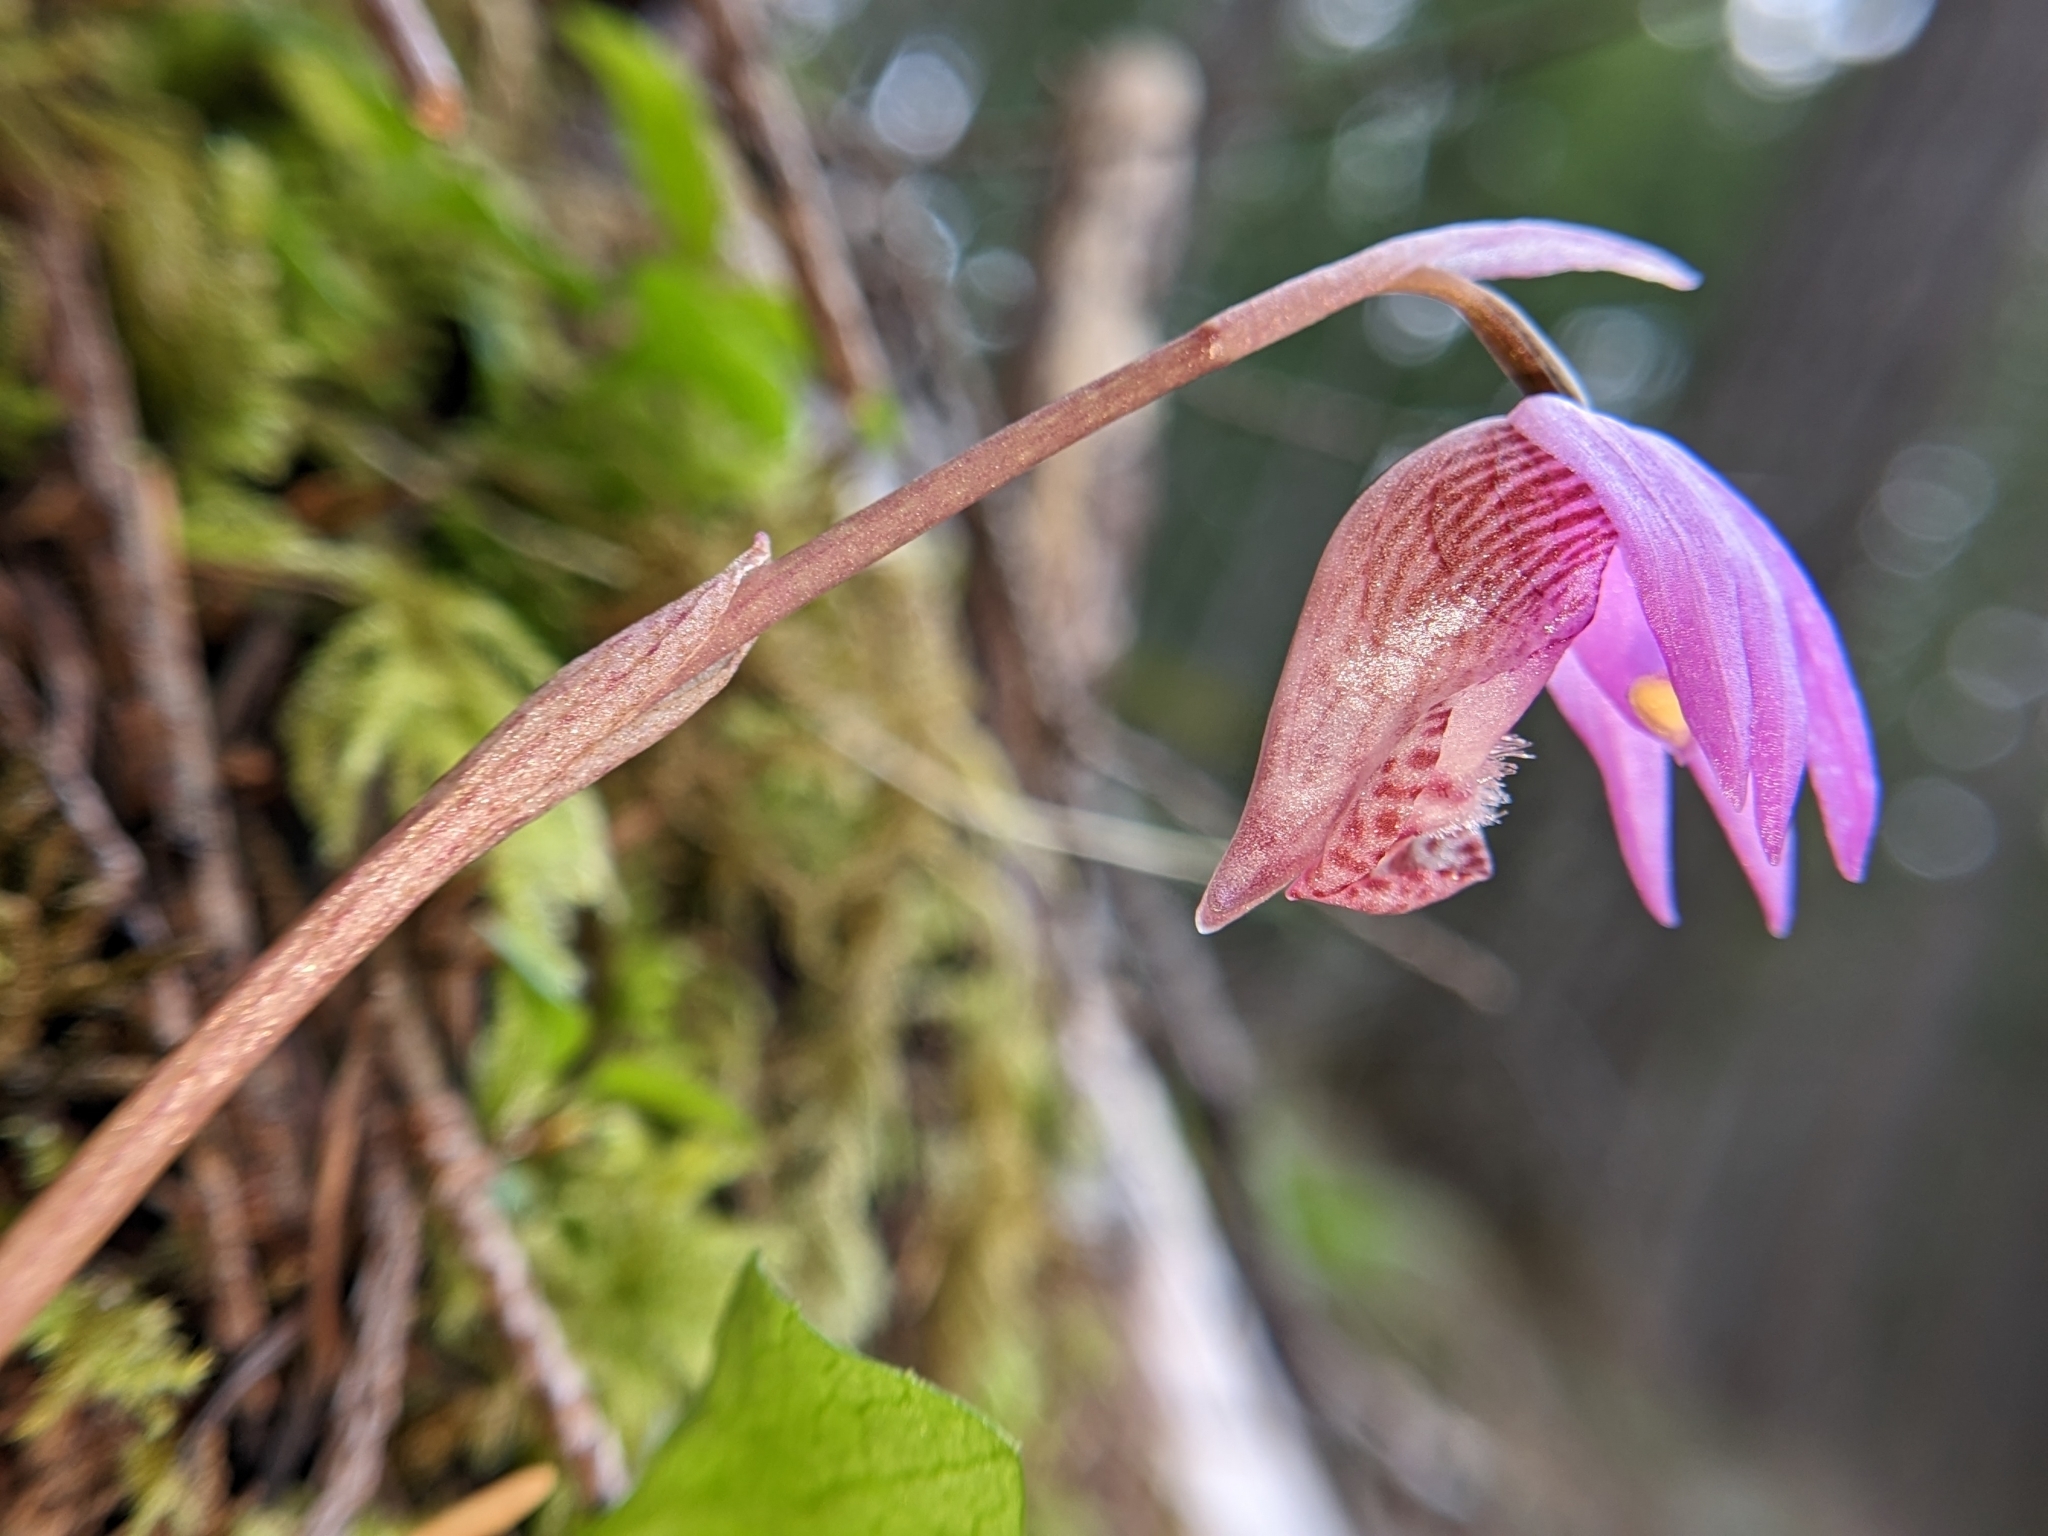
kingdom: Plantae
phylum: Tracheophyta
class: Liliopsida
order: Asparagales
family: Orchidaceae
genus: Calypso
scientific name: Calypso bulbosa
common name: Calypso
